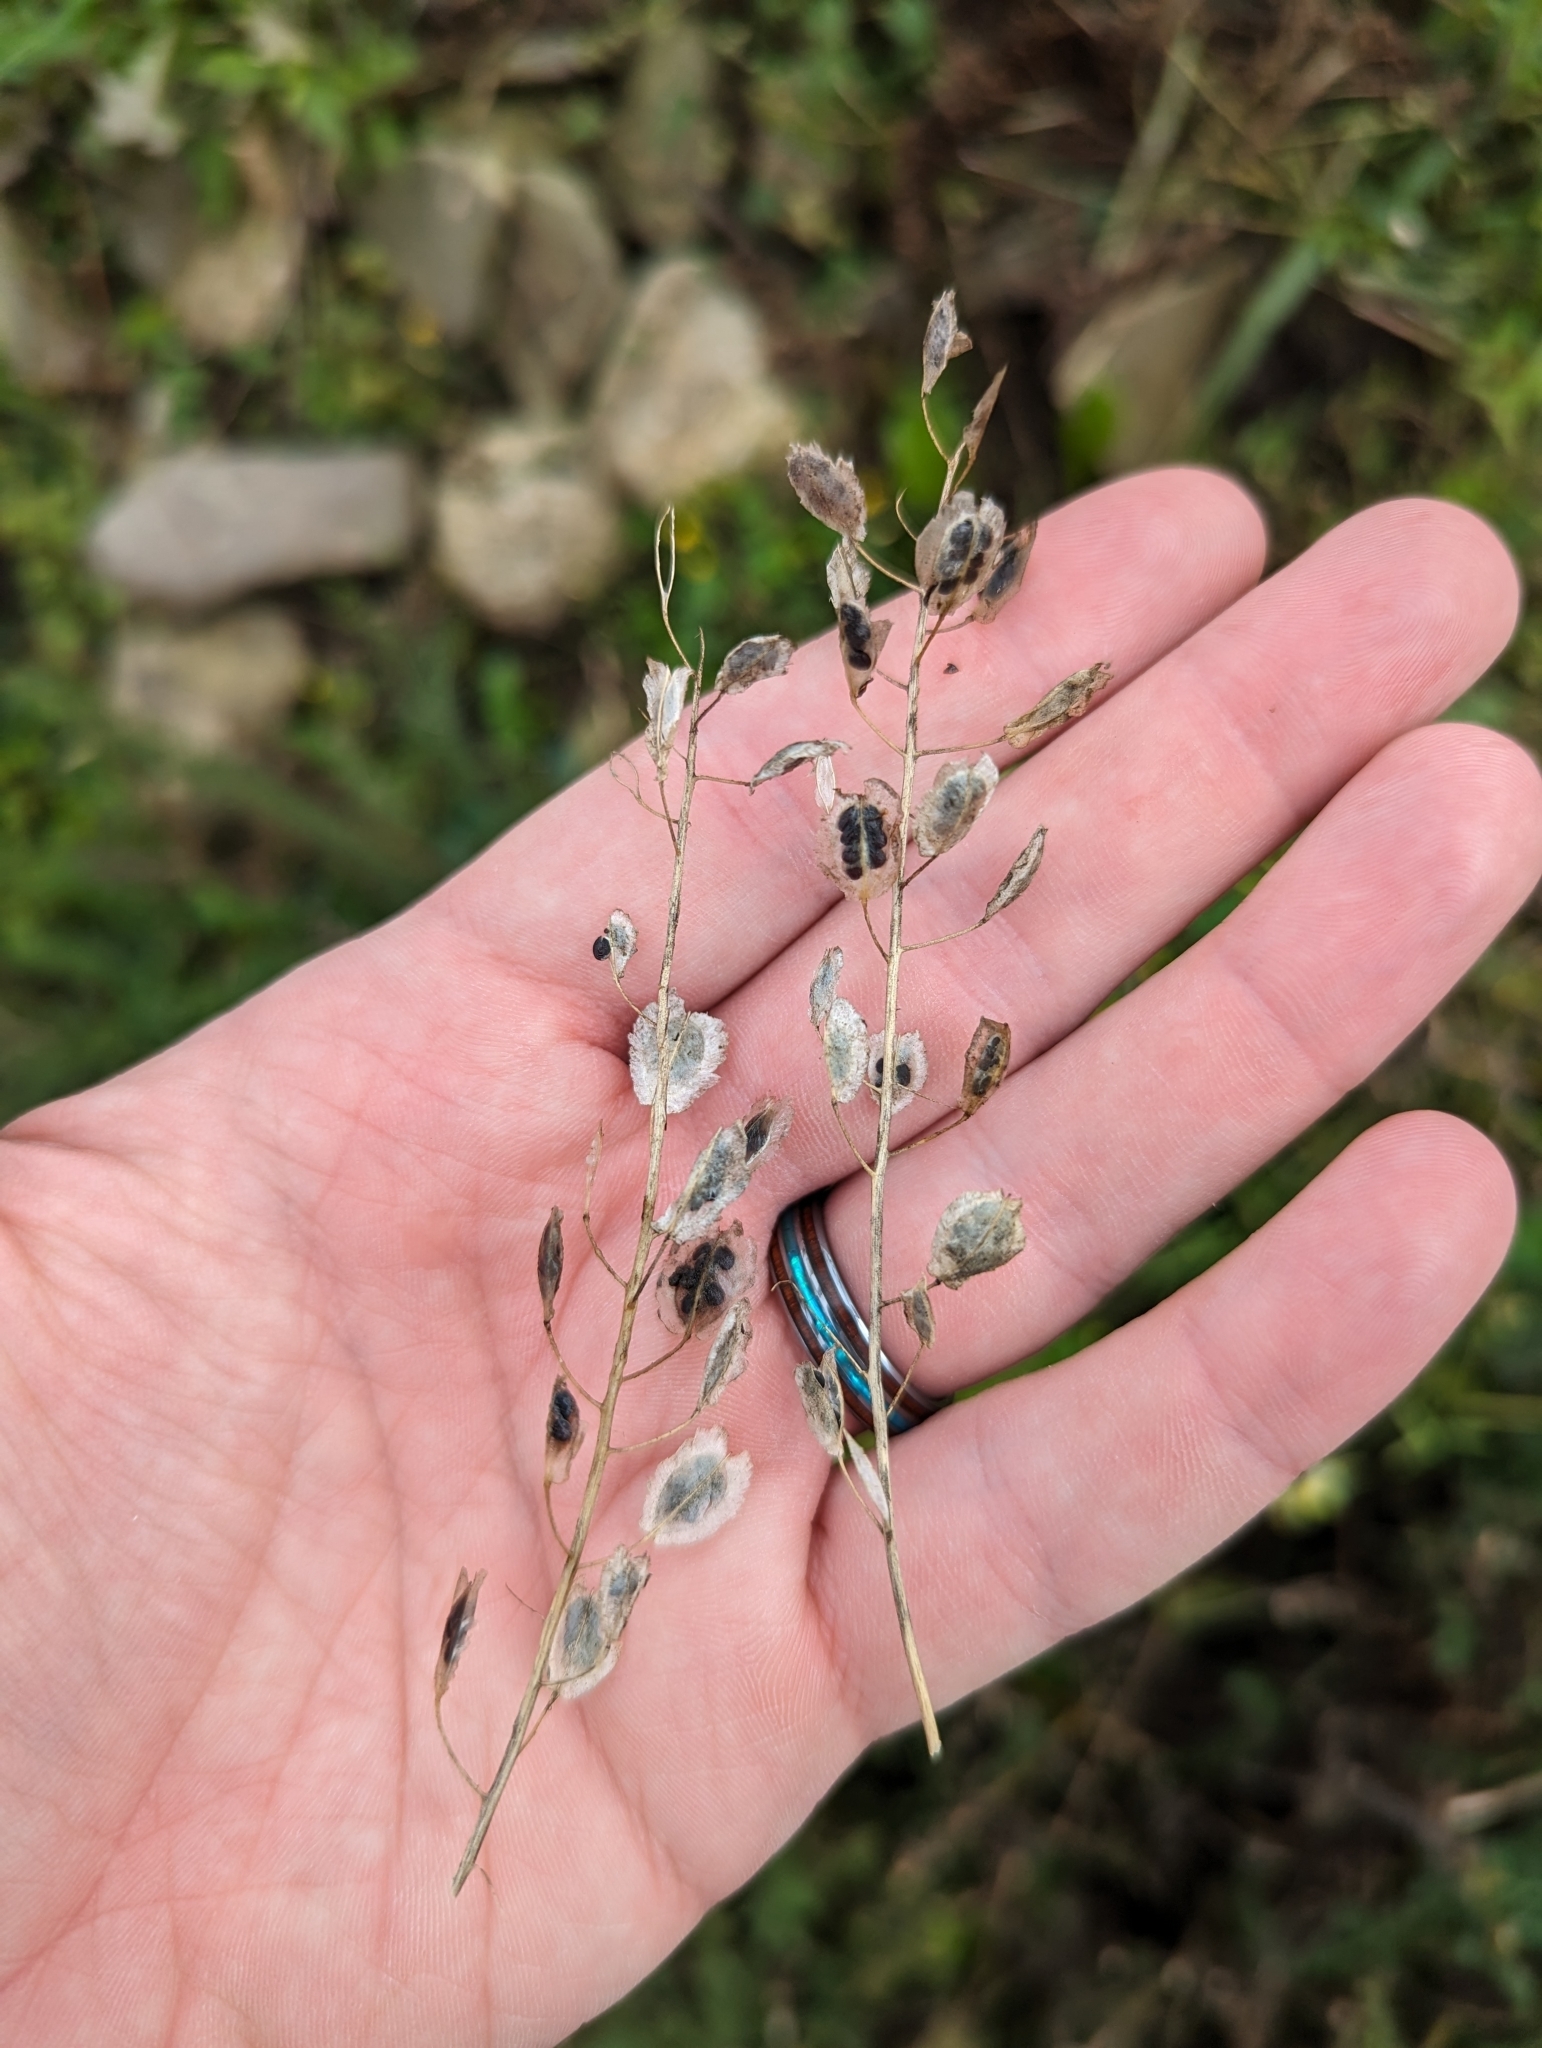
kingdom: Plantae
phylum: Tracheophyta
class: Magnoliopsida
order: Brassicales
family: Brassicaceae
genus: Thlaspi
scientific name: Thlaspi arvense
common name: Field pennycress
